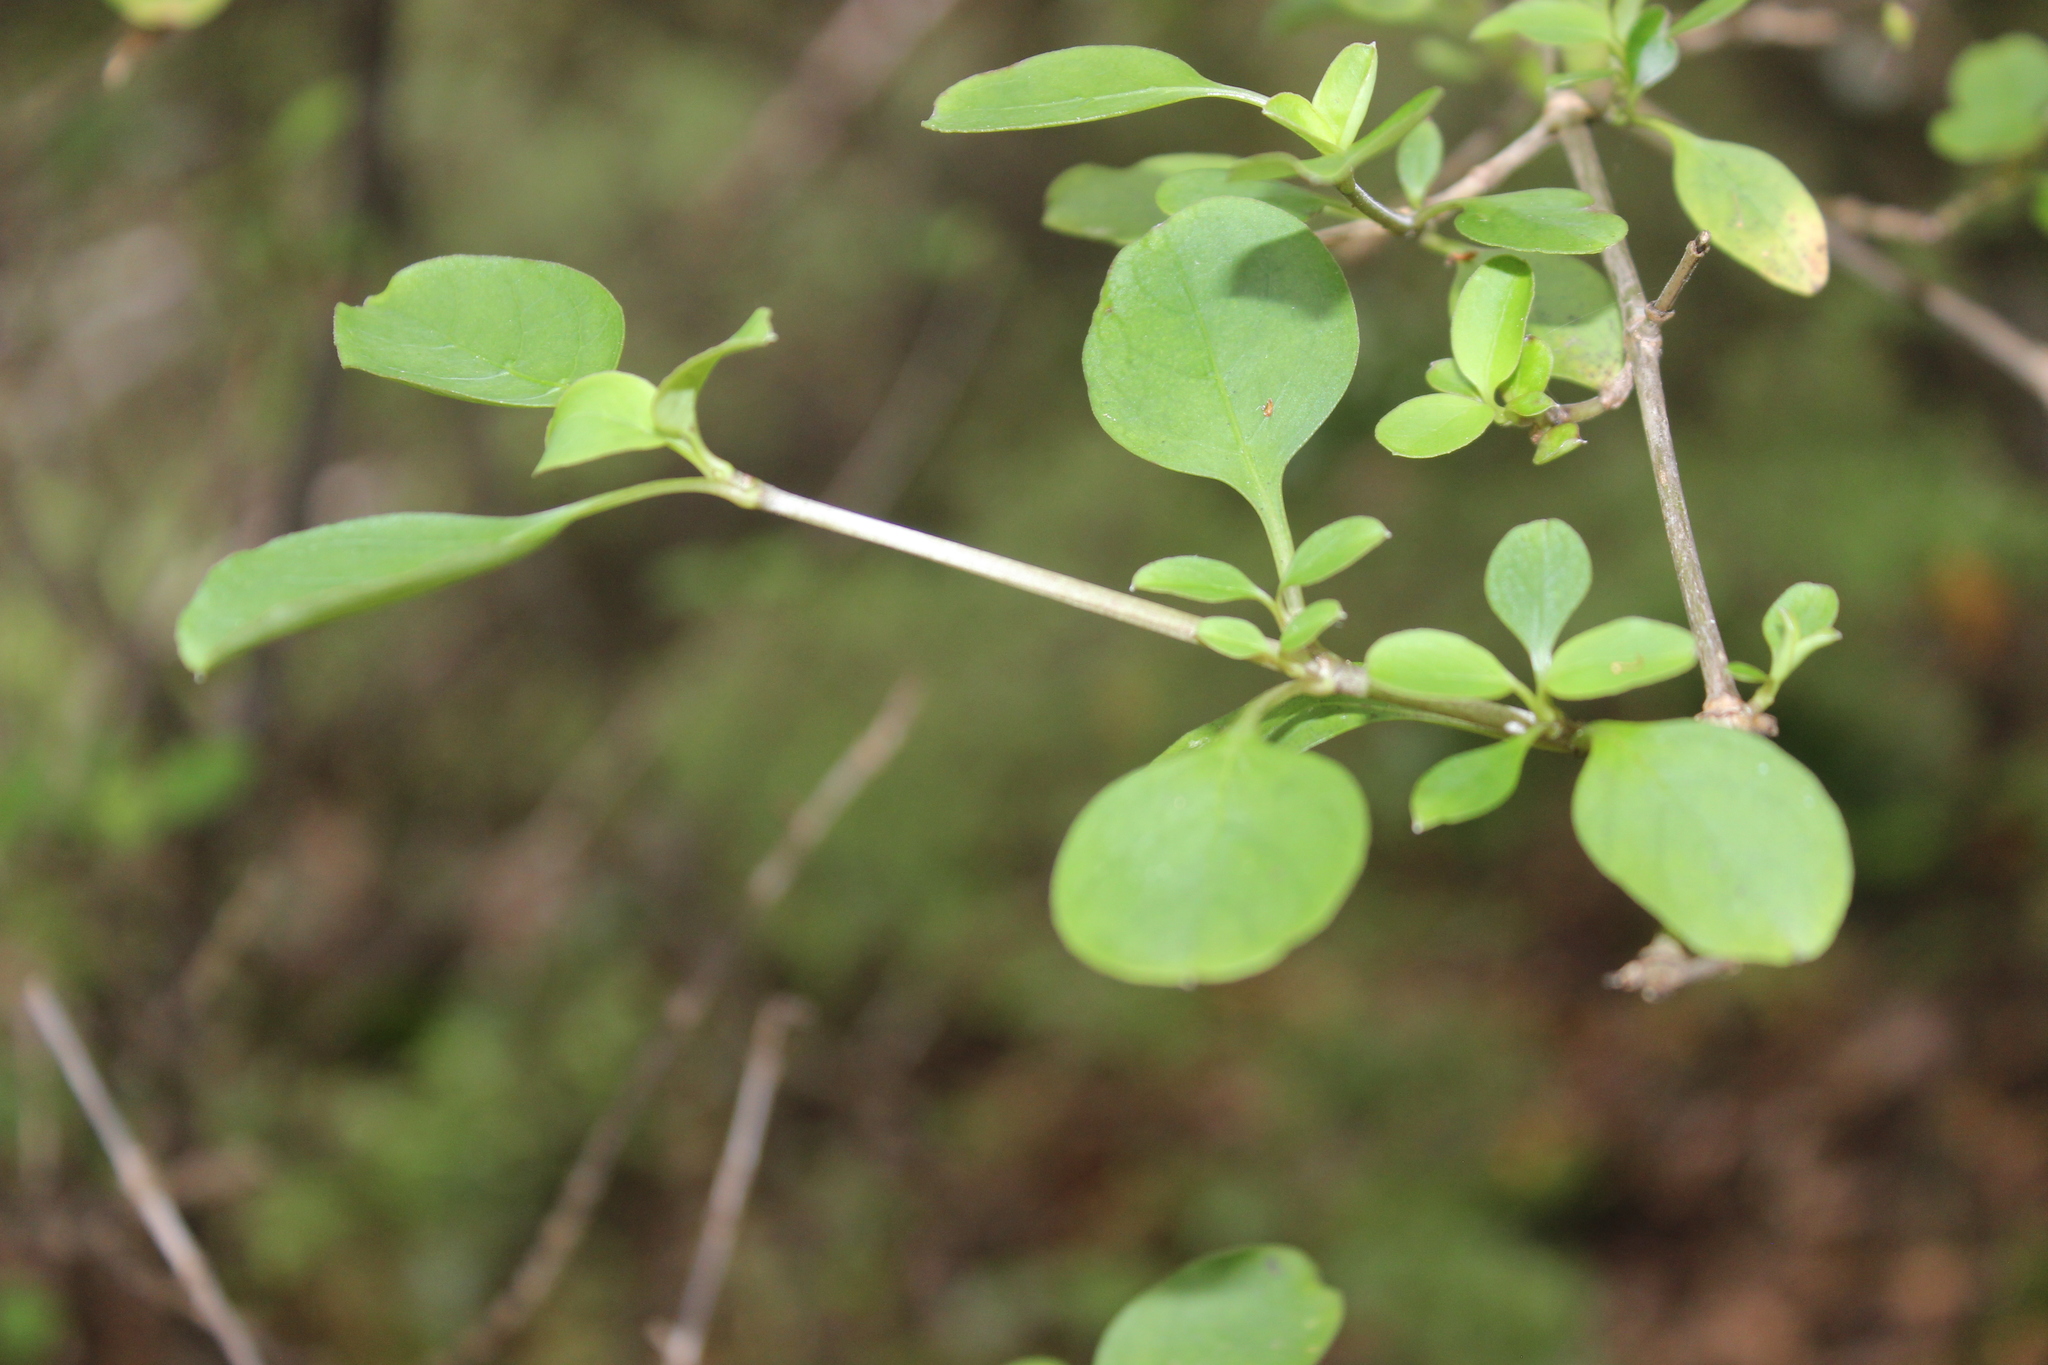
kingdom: Plantae
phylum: Tracheophyta
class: Magnoliopsida
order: Gentianales
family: Rubiaceae
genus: Coprosma
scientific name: Coprosma foetidissima
